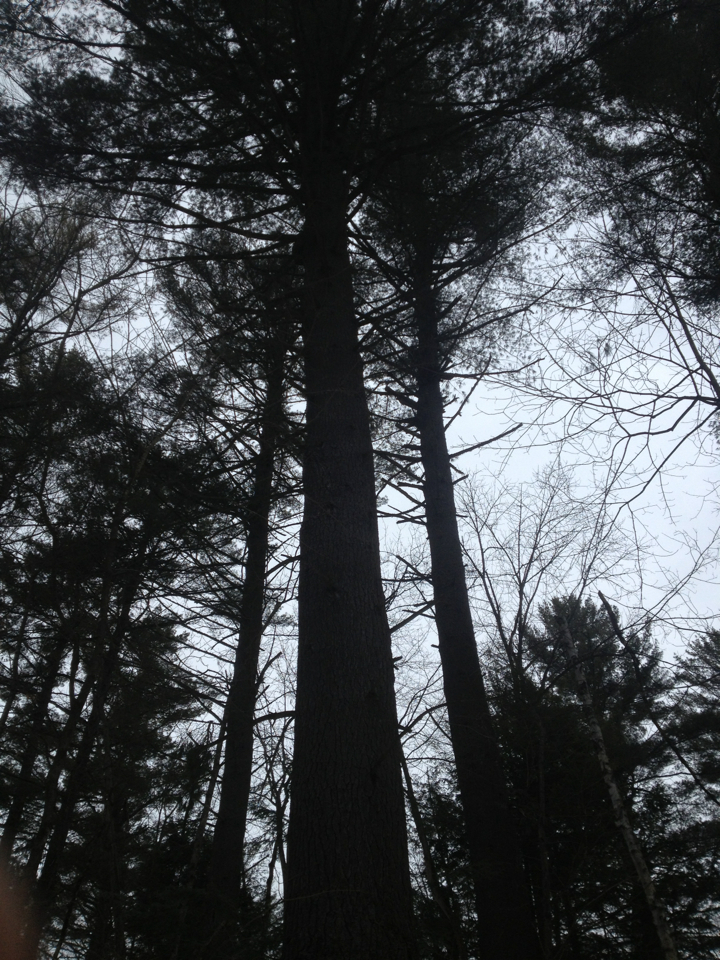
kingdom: Plantae
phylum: Tracheophyta
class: Pinopsida
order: Pinales
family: Pinaceae
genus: Pinus
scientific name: Pinus strobus
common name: Weymouth pine
